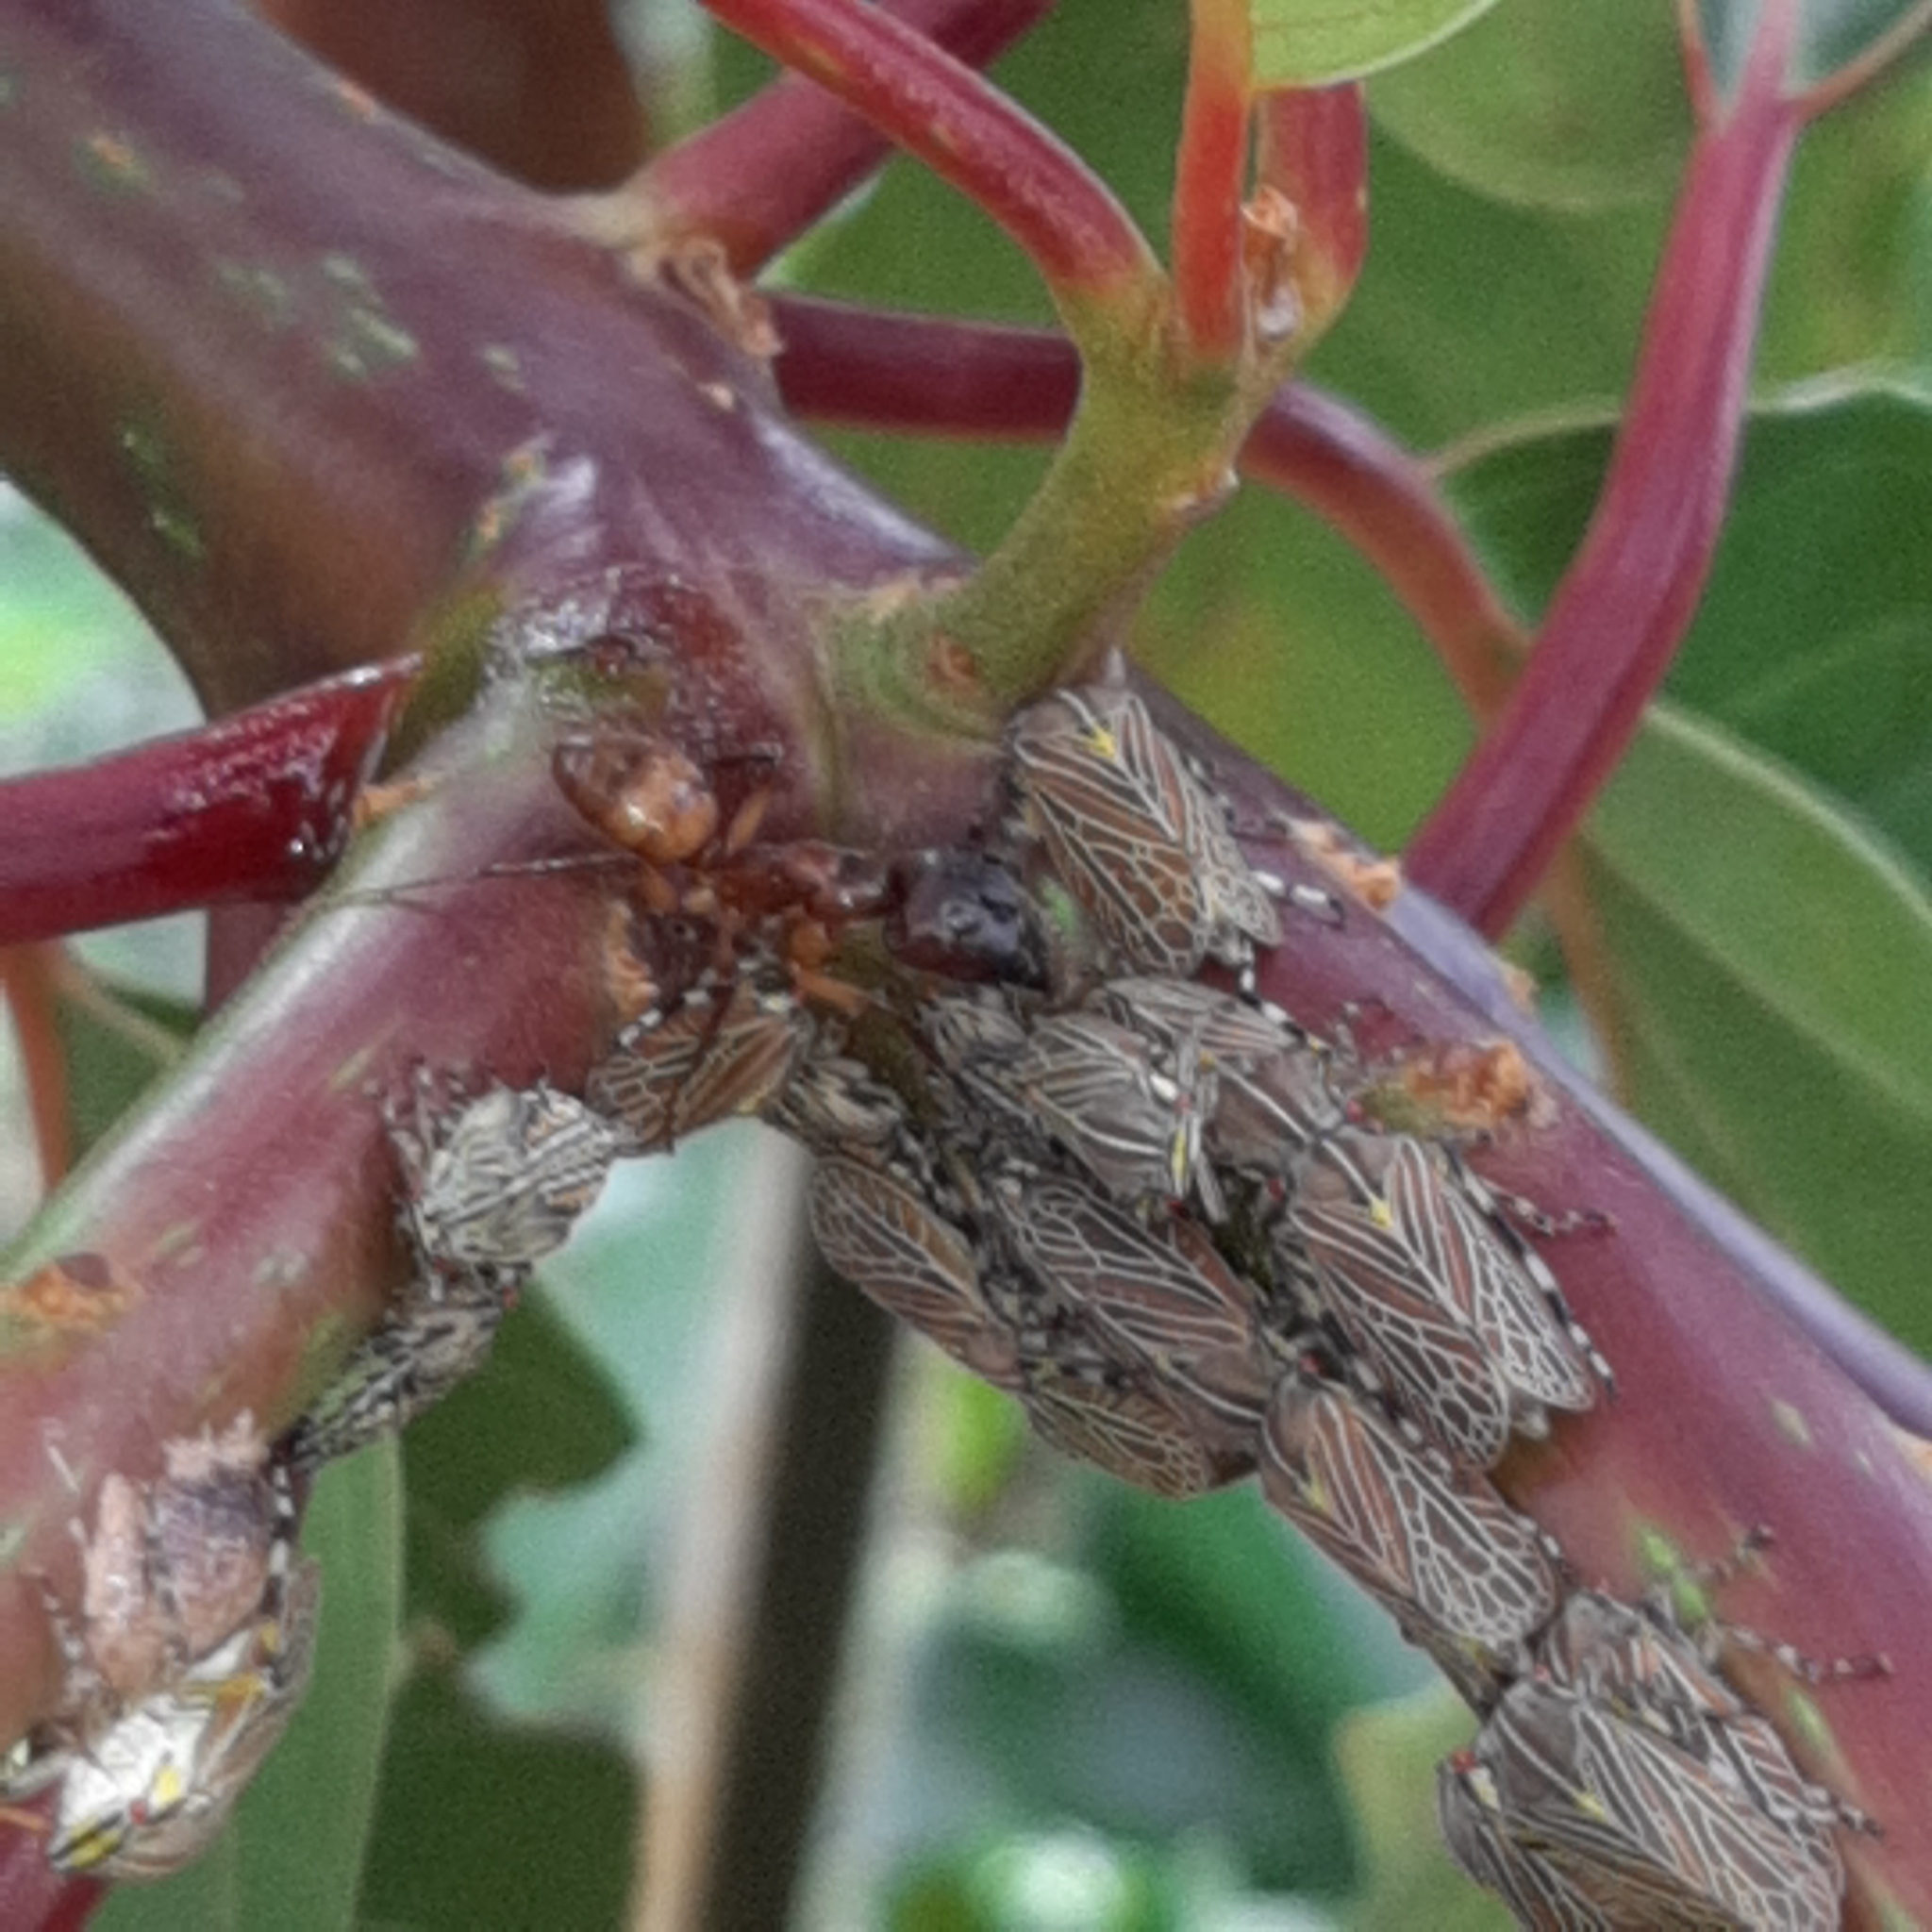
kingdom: Animalia
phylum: Arthropoda
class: Insecta
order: Hemiptera
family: Aetalionidae
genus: Aetalion
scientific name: Aetalion reticulatum
